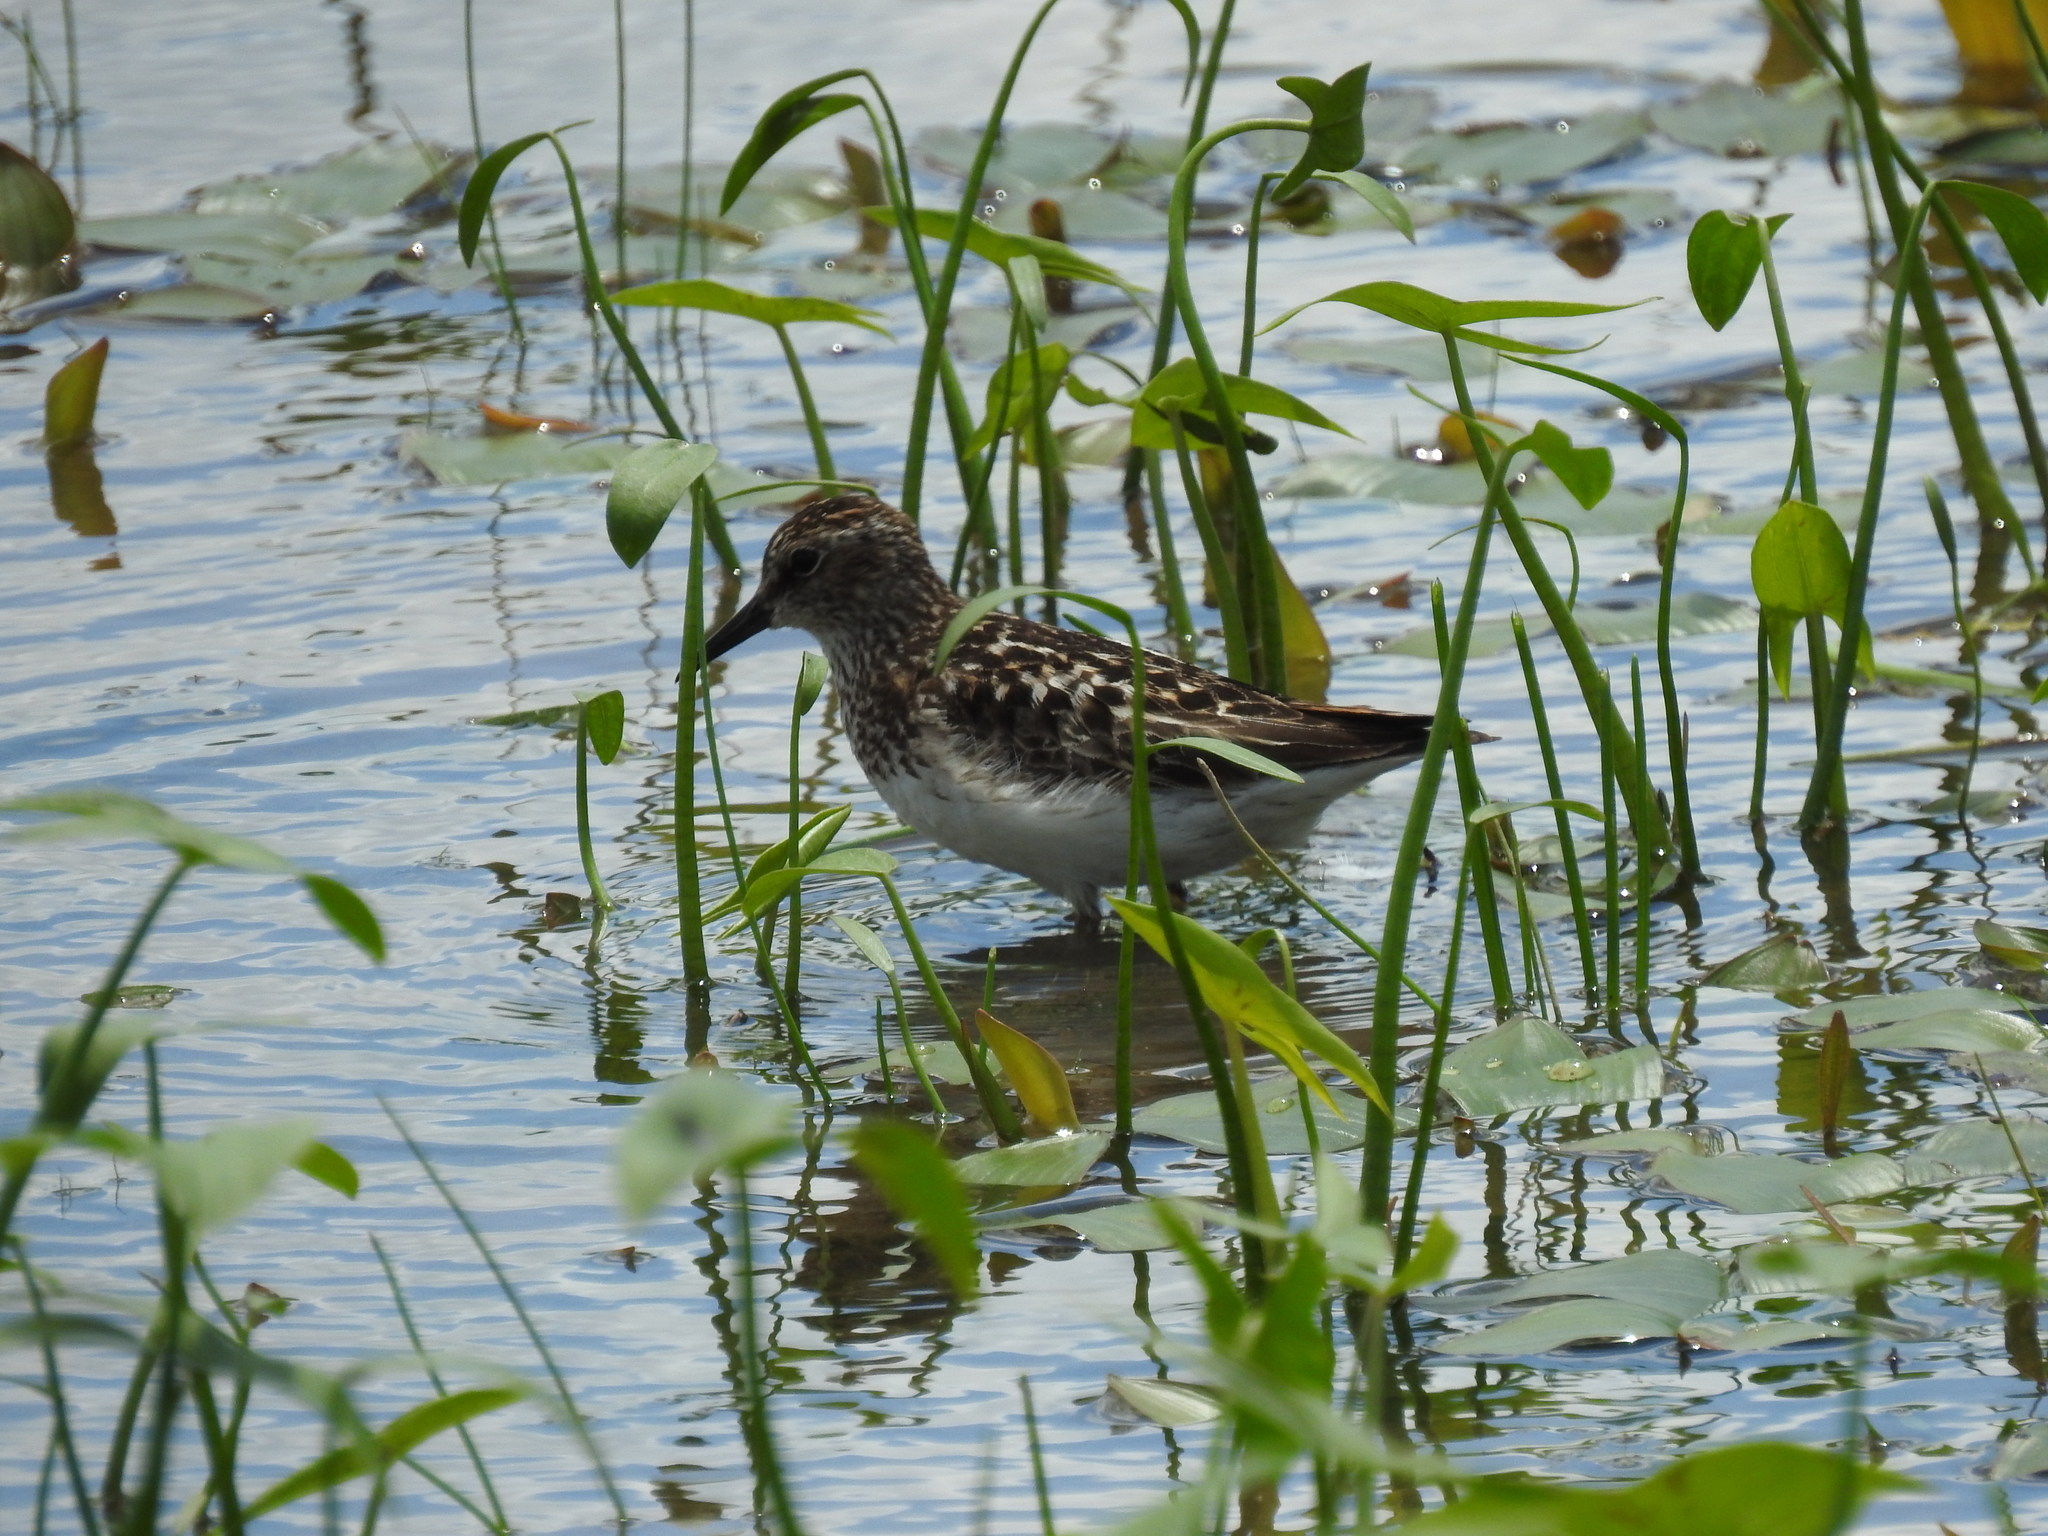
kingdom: Animalia
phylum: Chordata
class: Aves
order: Charadriiformes
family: Scolopacidae
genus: Calidris
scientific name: Calidris minutilla
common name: Least sandpiper
